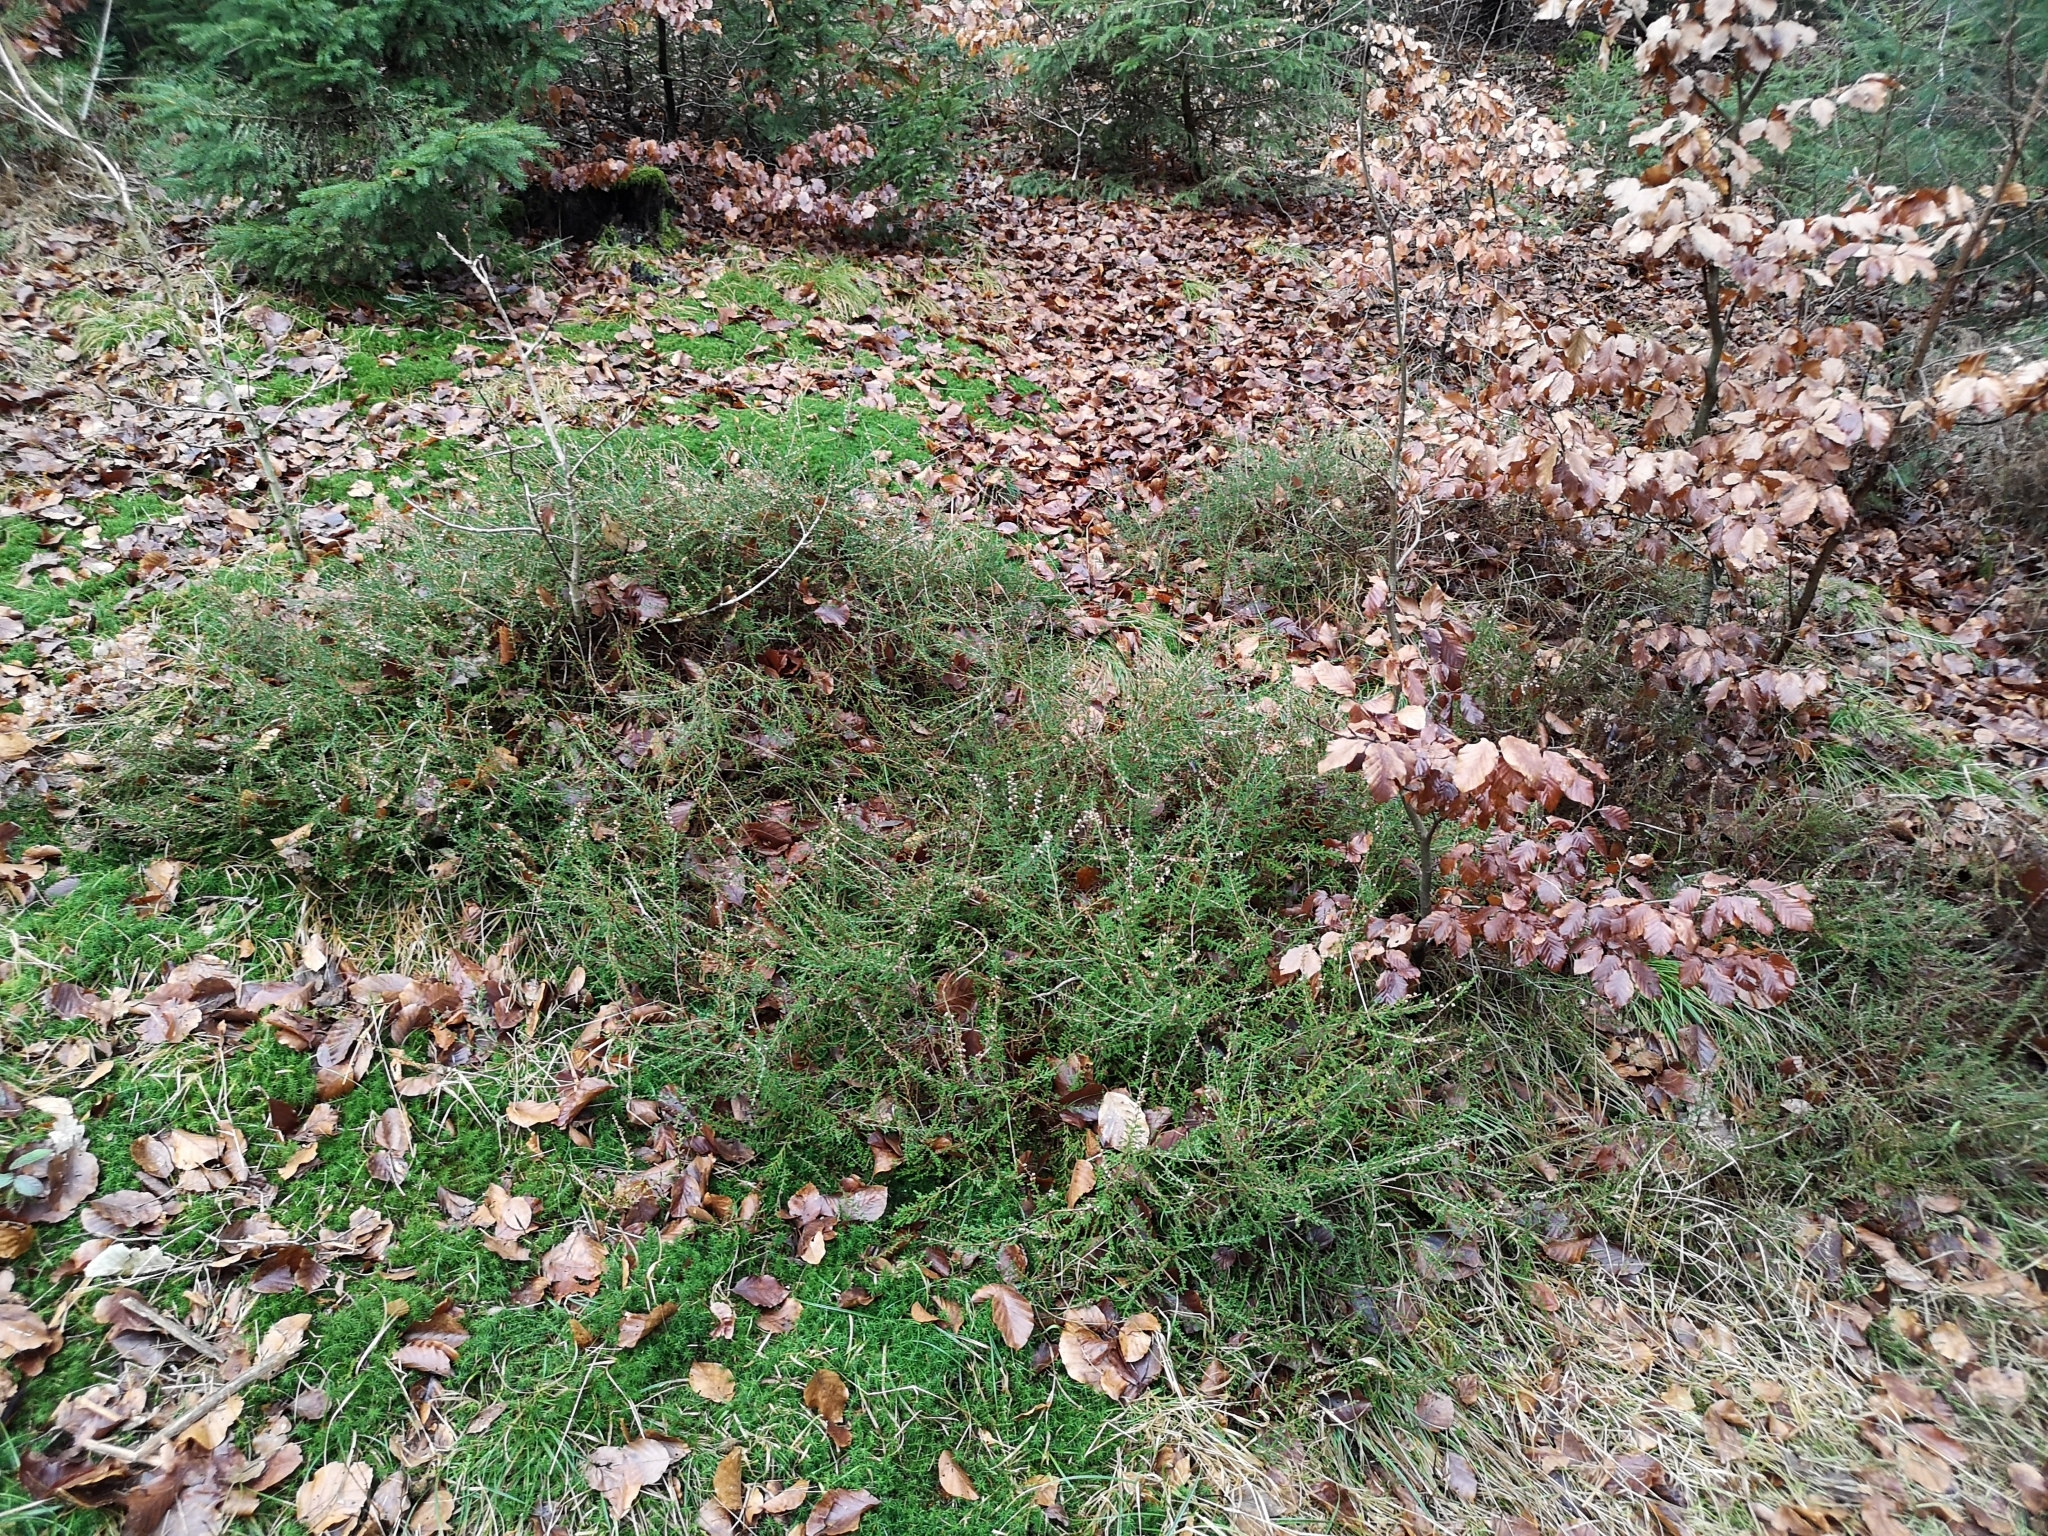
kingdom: Plantae
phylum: Tracheophyta
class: Magnoliopsida
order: Ericales
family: Ericaceae
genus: Calluna
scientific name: Calluna vulgaris
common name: Heather
